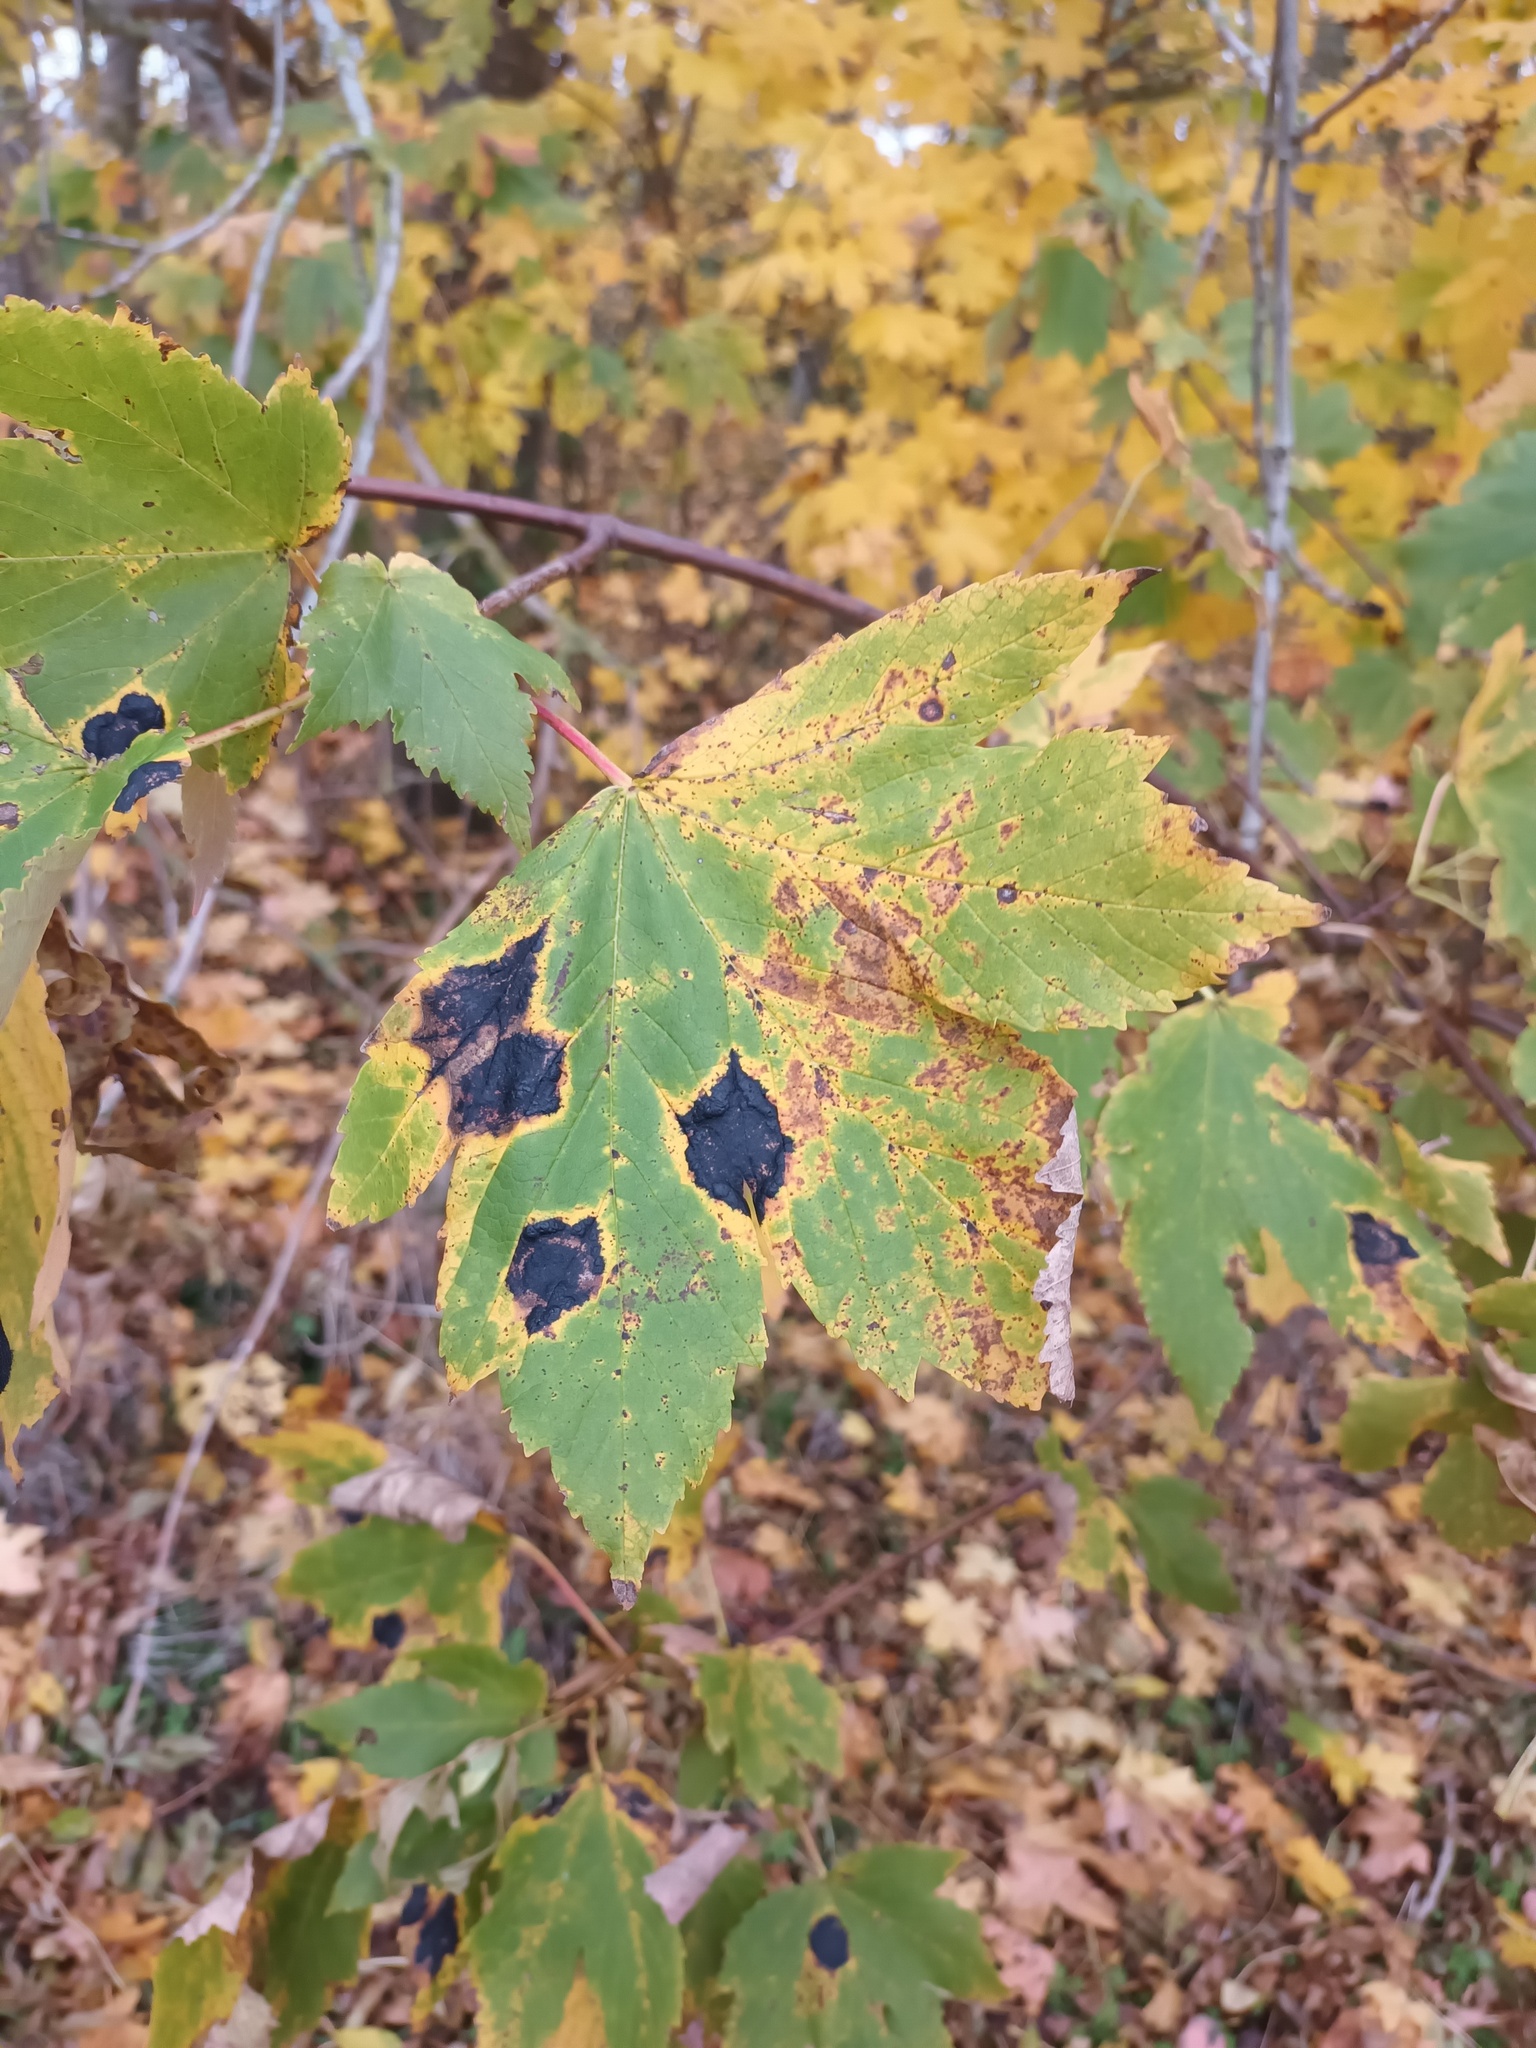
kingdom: Fungi
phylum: Ascomycota
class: Leotiomycetes
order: Rhytismatales
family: Rhytismataceae
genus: Rhytisma
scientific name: Rhytisma acerinum
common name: European tar spot
